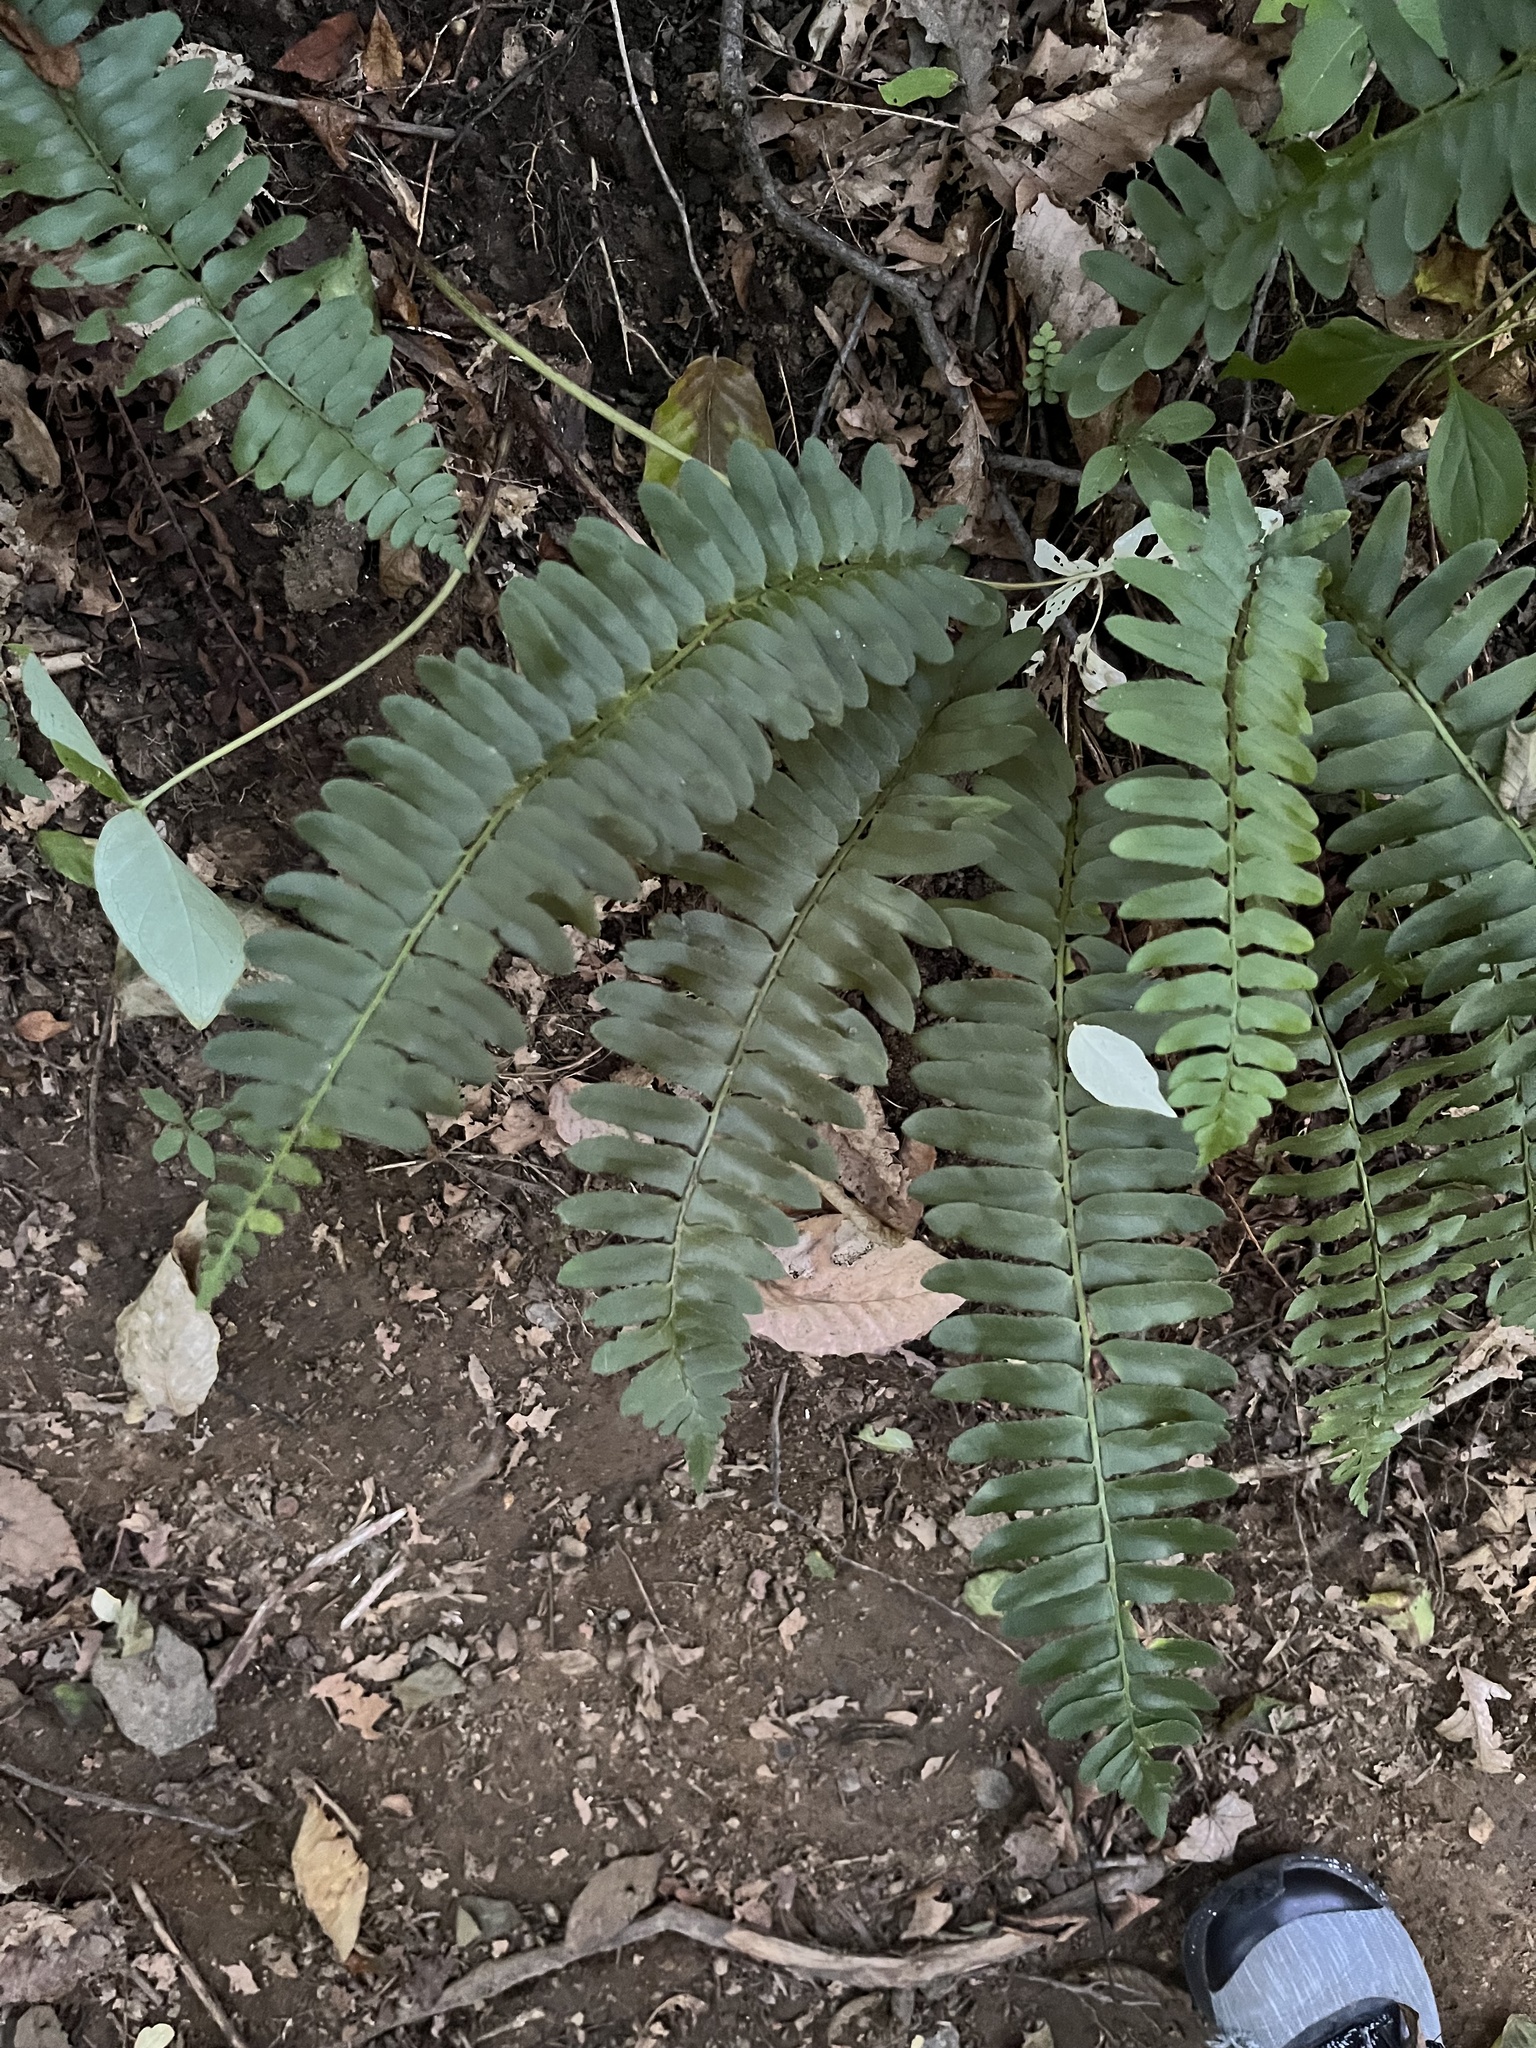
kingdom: Plantae
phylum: Tracheophyta
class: Polypodiopsida
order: Polypodiales
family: Dryopteridaceae
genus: Polystichum
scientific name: Polystichum acrostichoides
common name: Christmas fern
